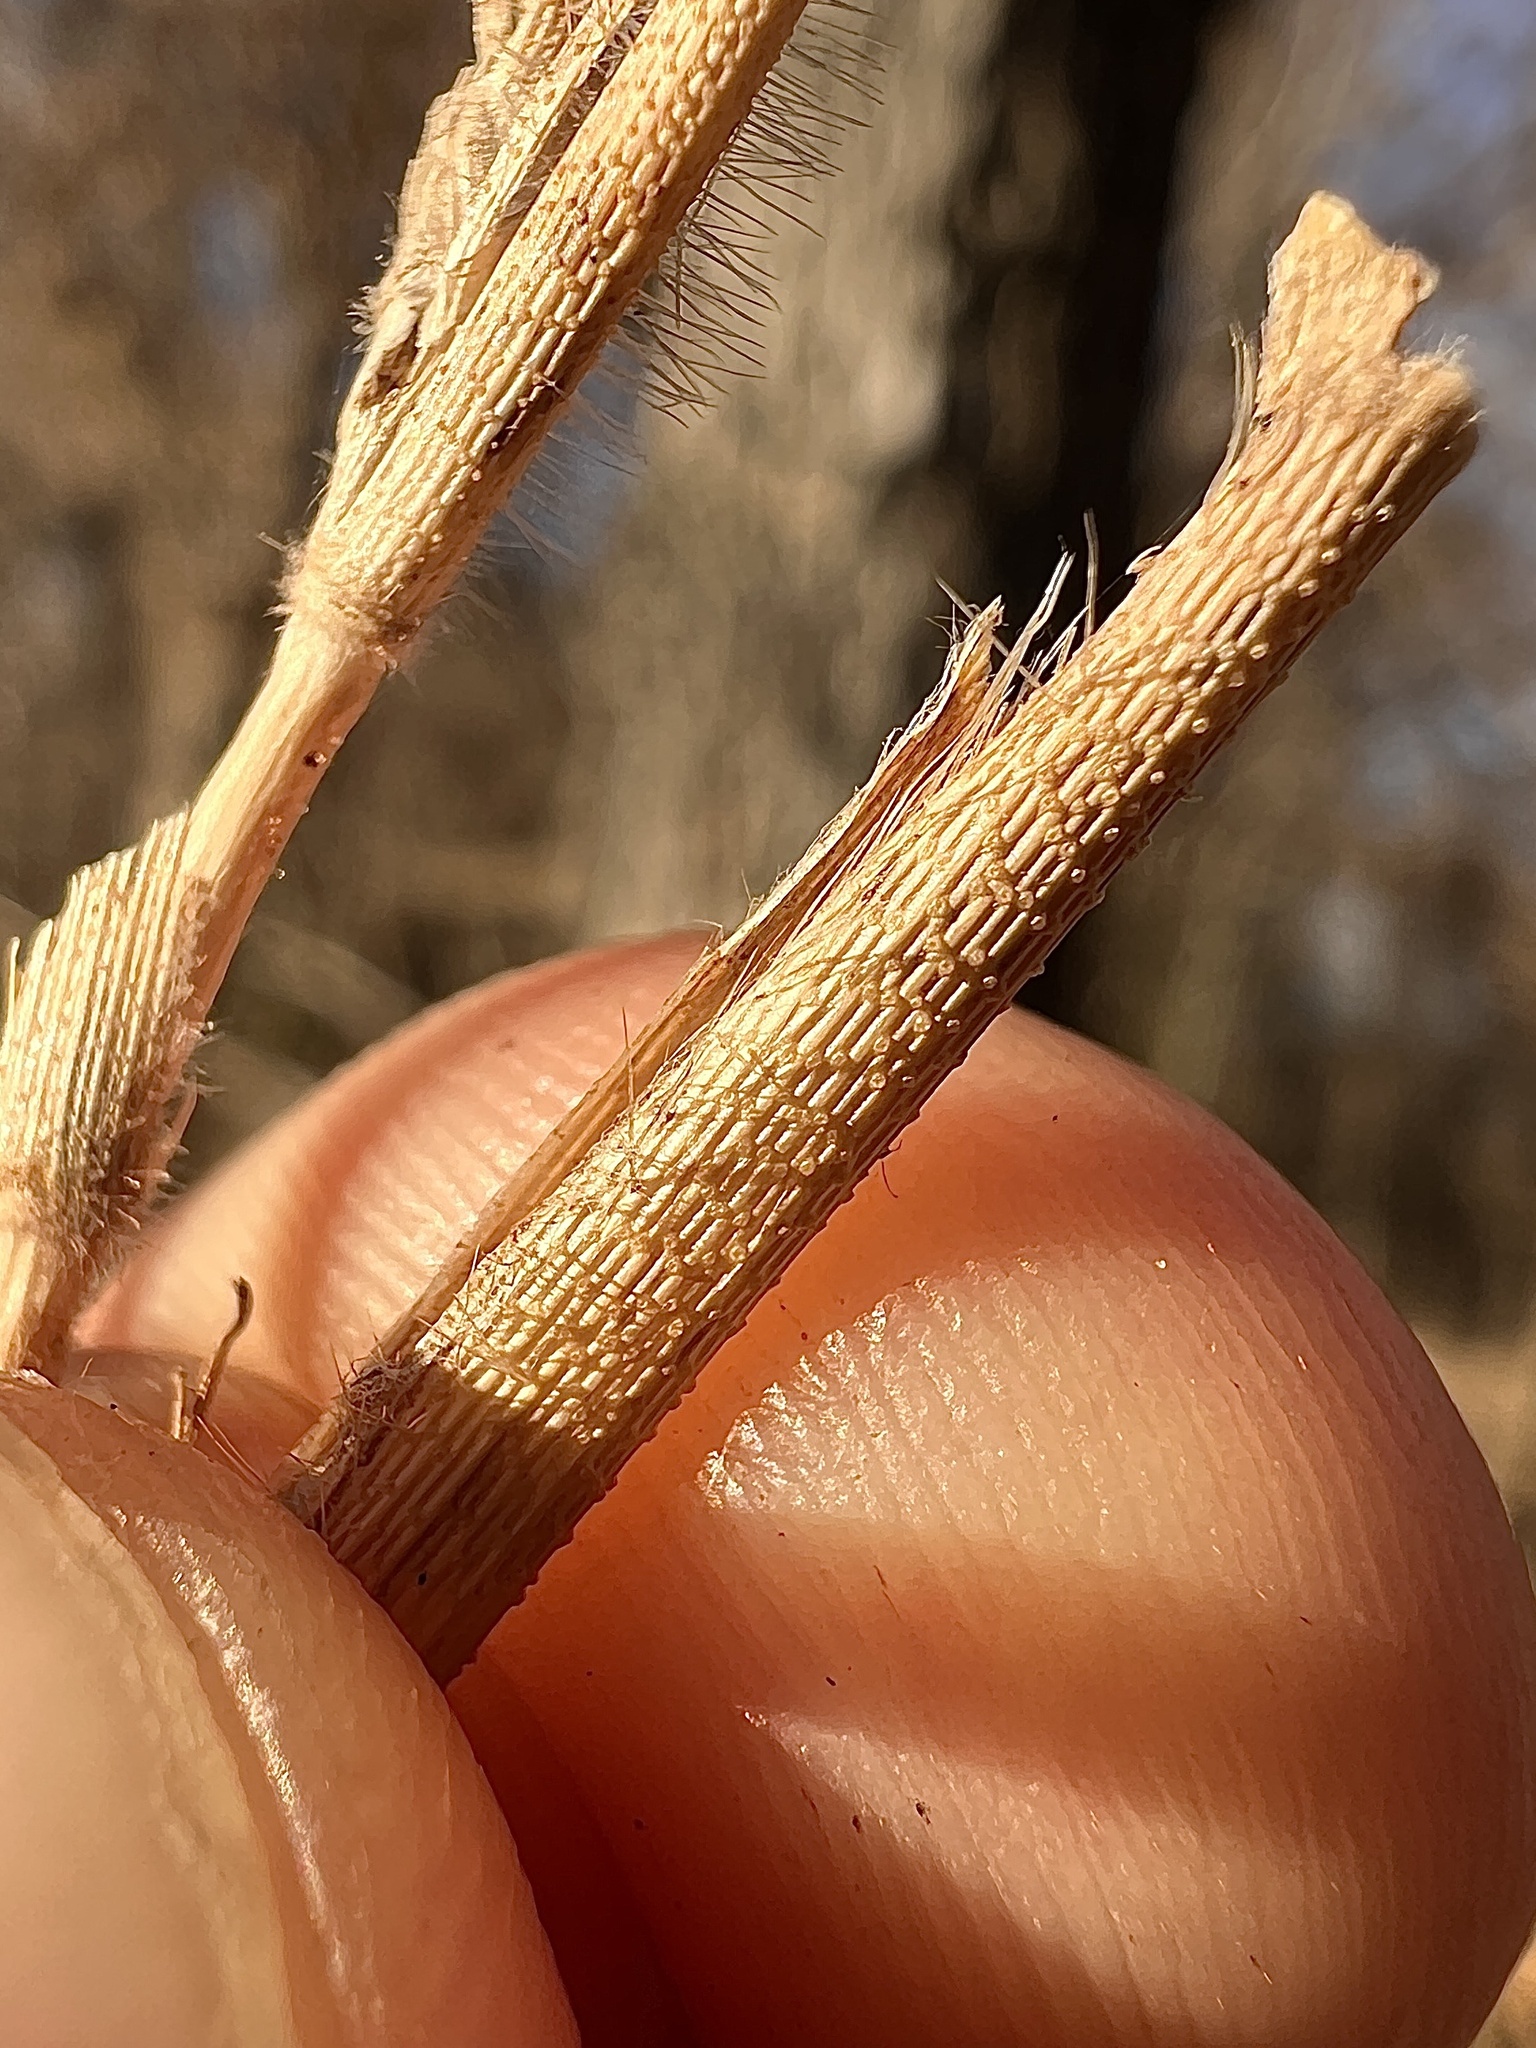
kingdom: Plantae
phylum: Tracheophyta
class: Liliopsida
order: Poales
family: Poaceae
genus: Dichanthelium
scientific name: Dichanthelium clandestinum
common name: Deer-tongue grass
